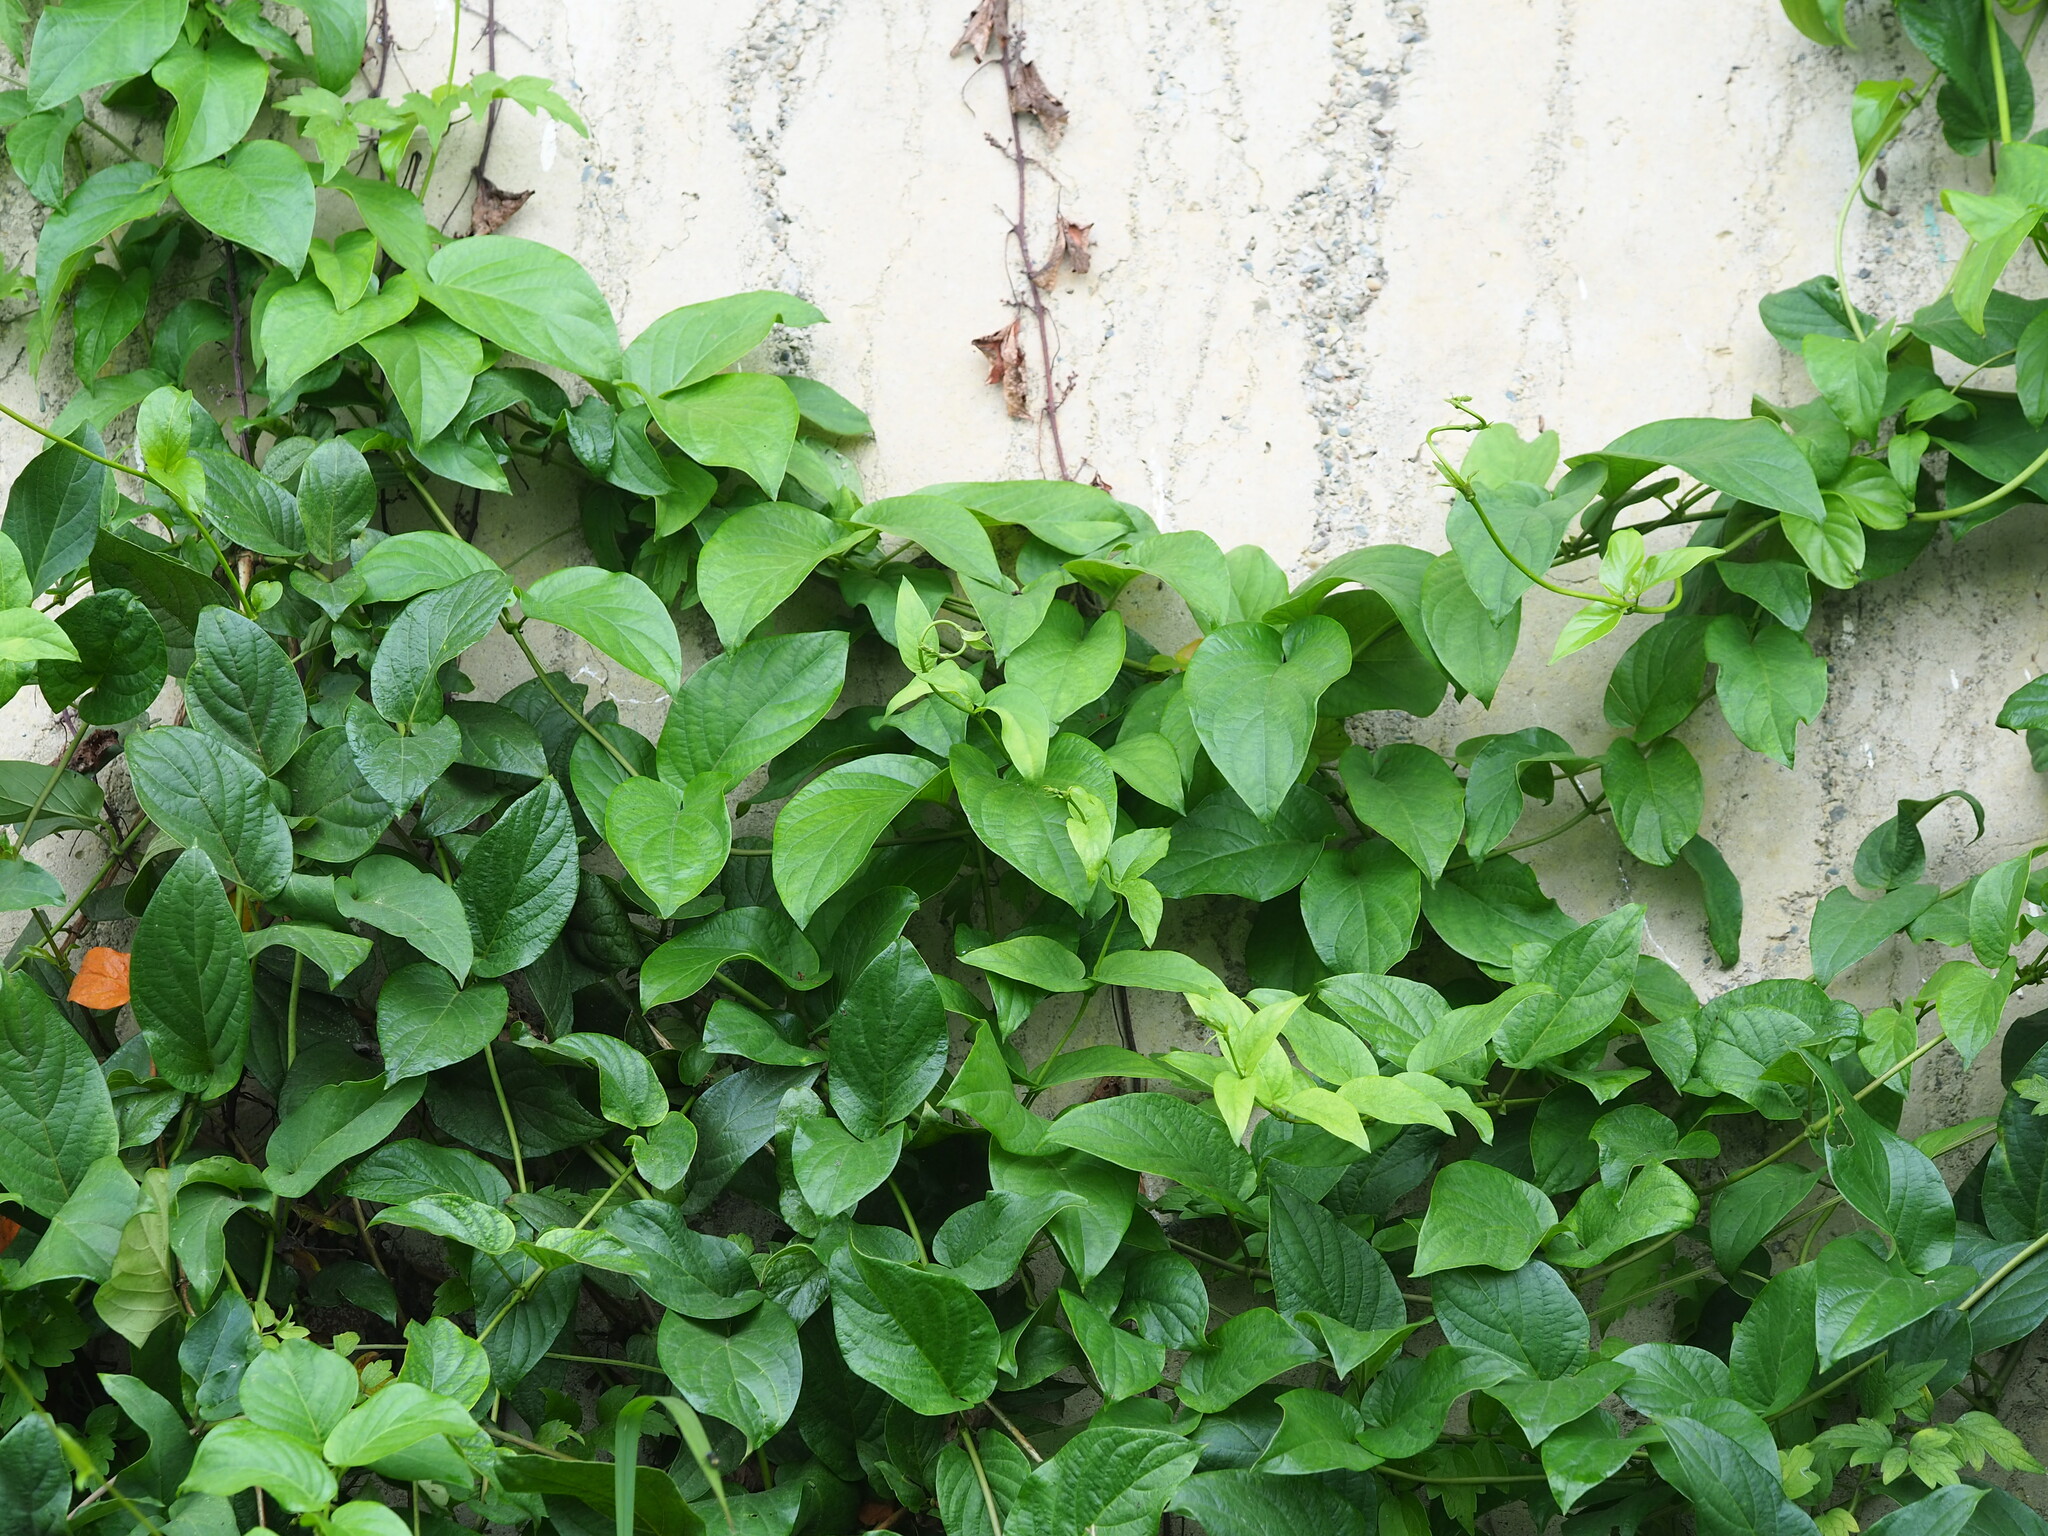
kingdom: Plantae
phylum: Tracheophyta
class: Magnoliopsida
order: Gentianales
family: Rubiaceae
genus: Paederia
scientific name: Paederia foetida
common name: Stinkvine
